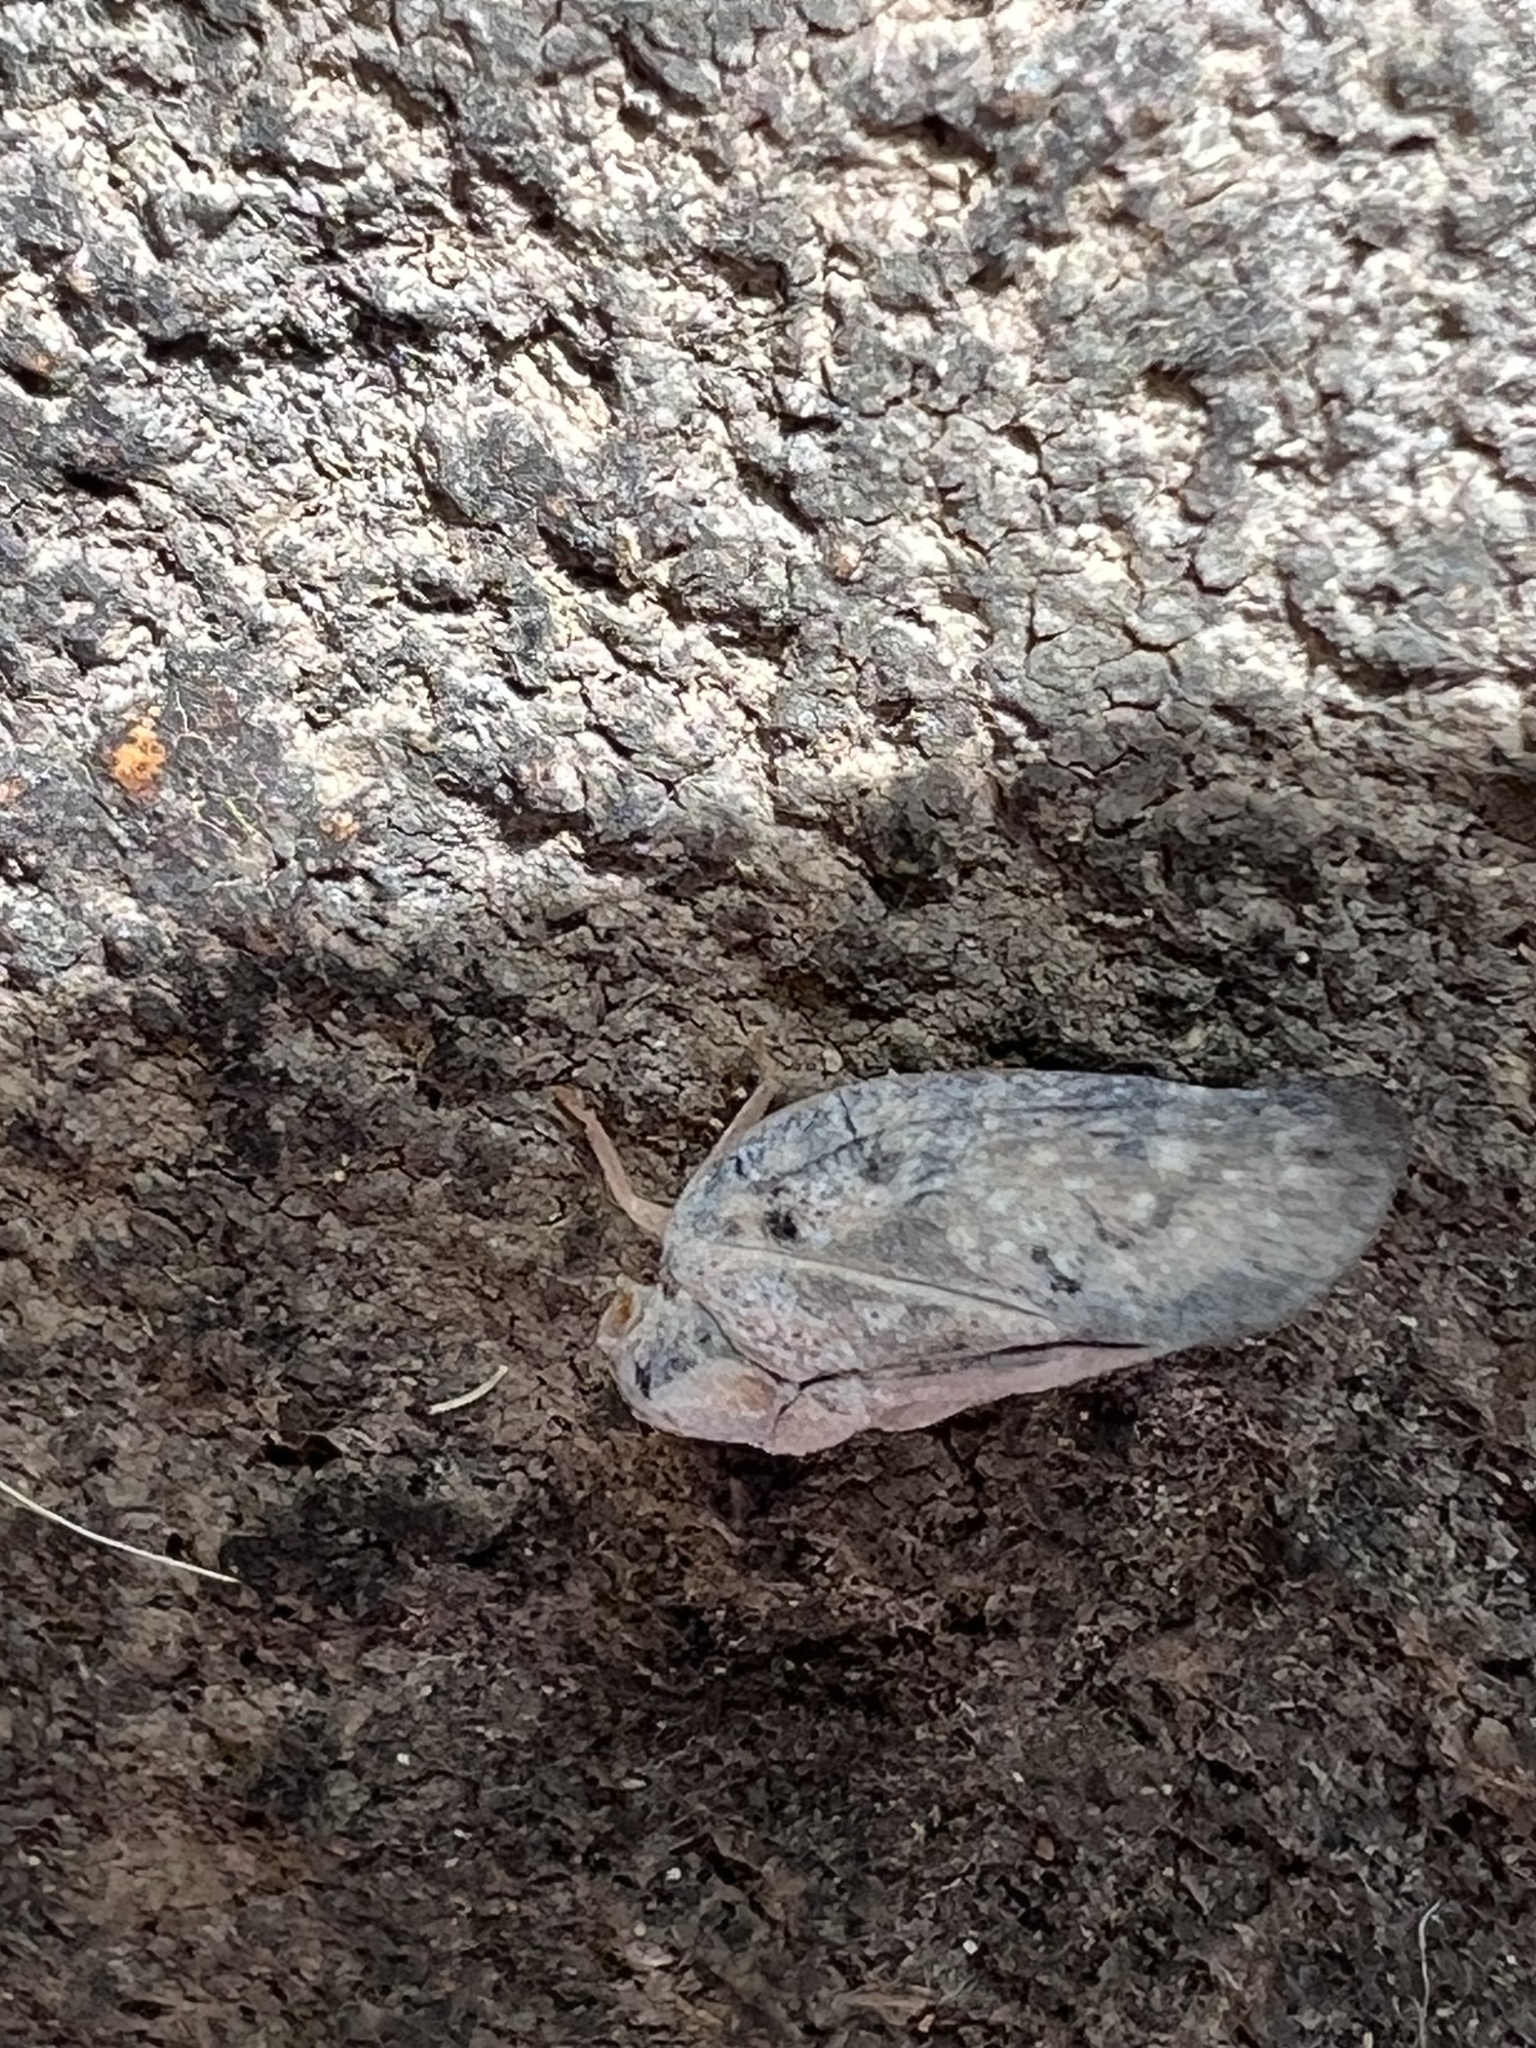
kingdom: Animalia
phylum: Arthropoda
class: Insecta
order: Hemiptera
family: Flatidae
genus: Metcalfa
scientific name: Metcalfa pruinosa
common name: Citrus flatid planthopper
